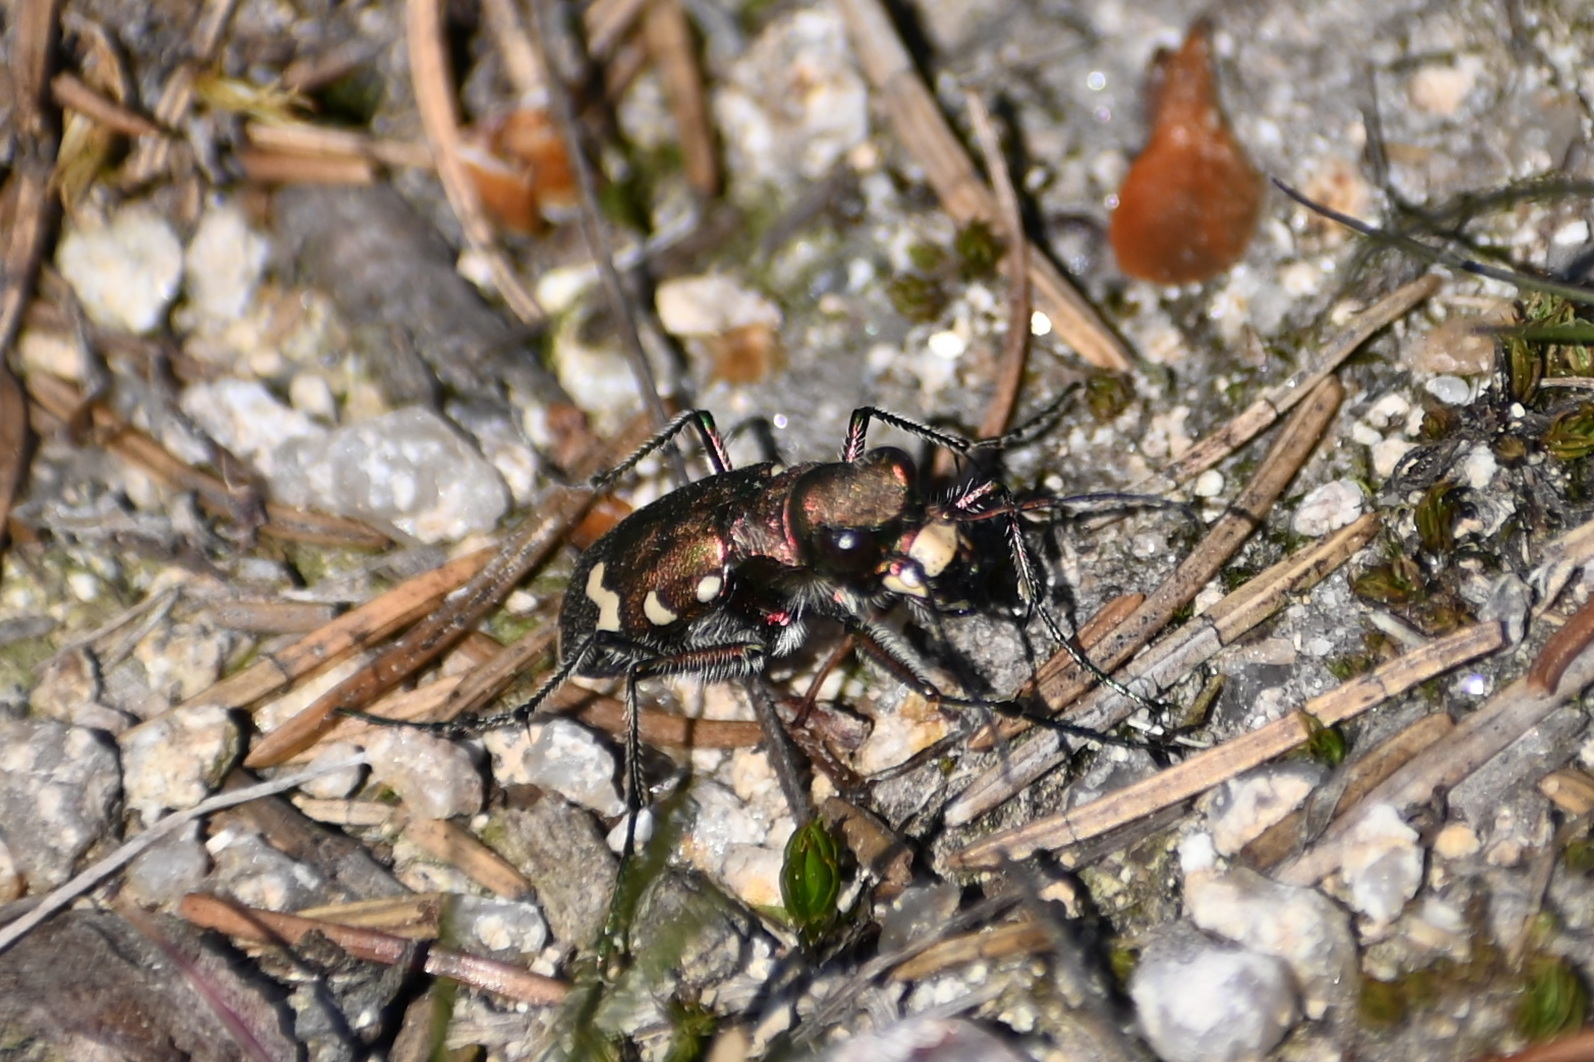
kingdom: Animalia
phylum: Arthropoda
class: Insecta
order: Coleoptera
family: Carabidae
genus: Cicindela
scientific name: Cicindela sylvicola
